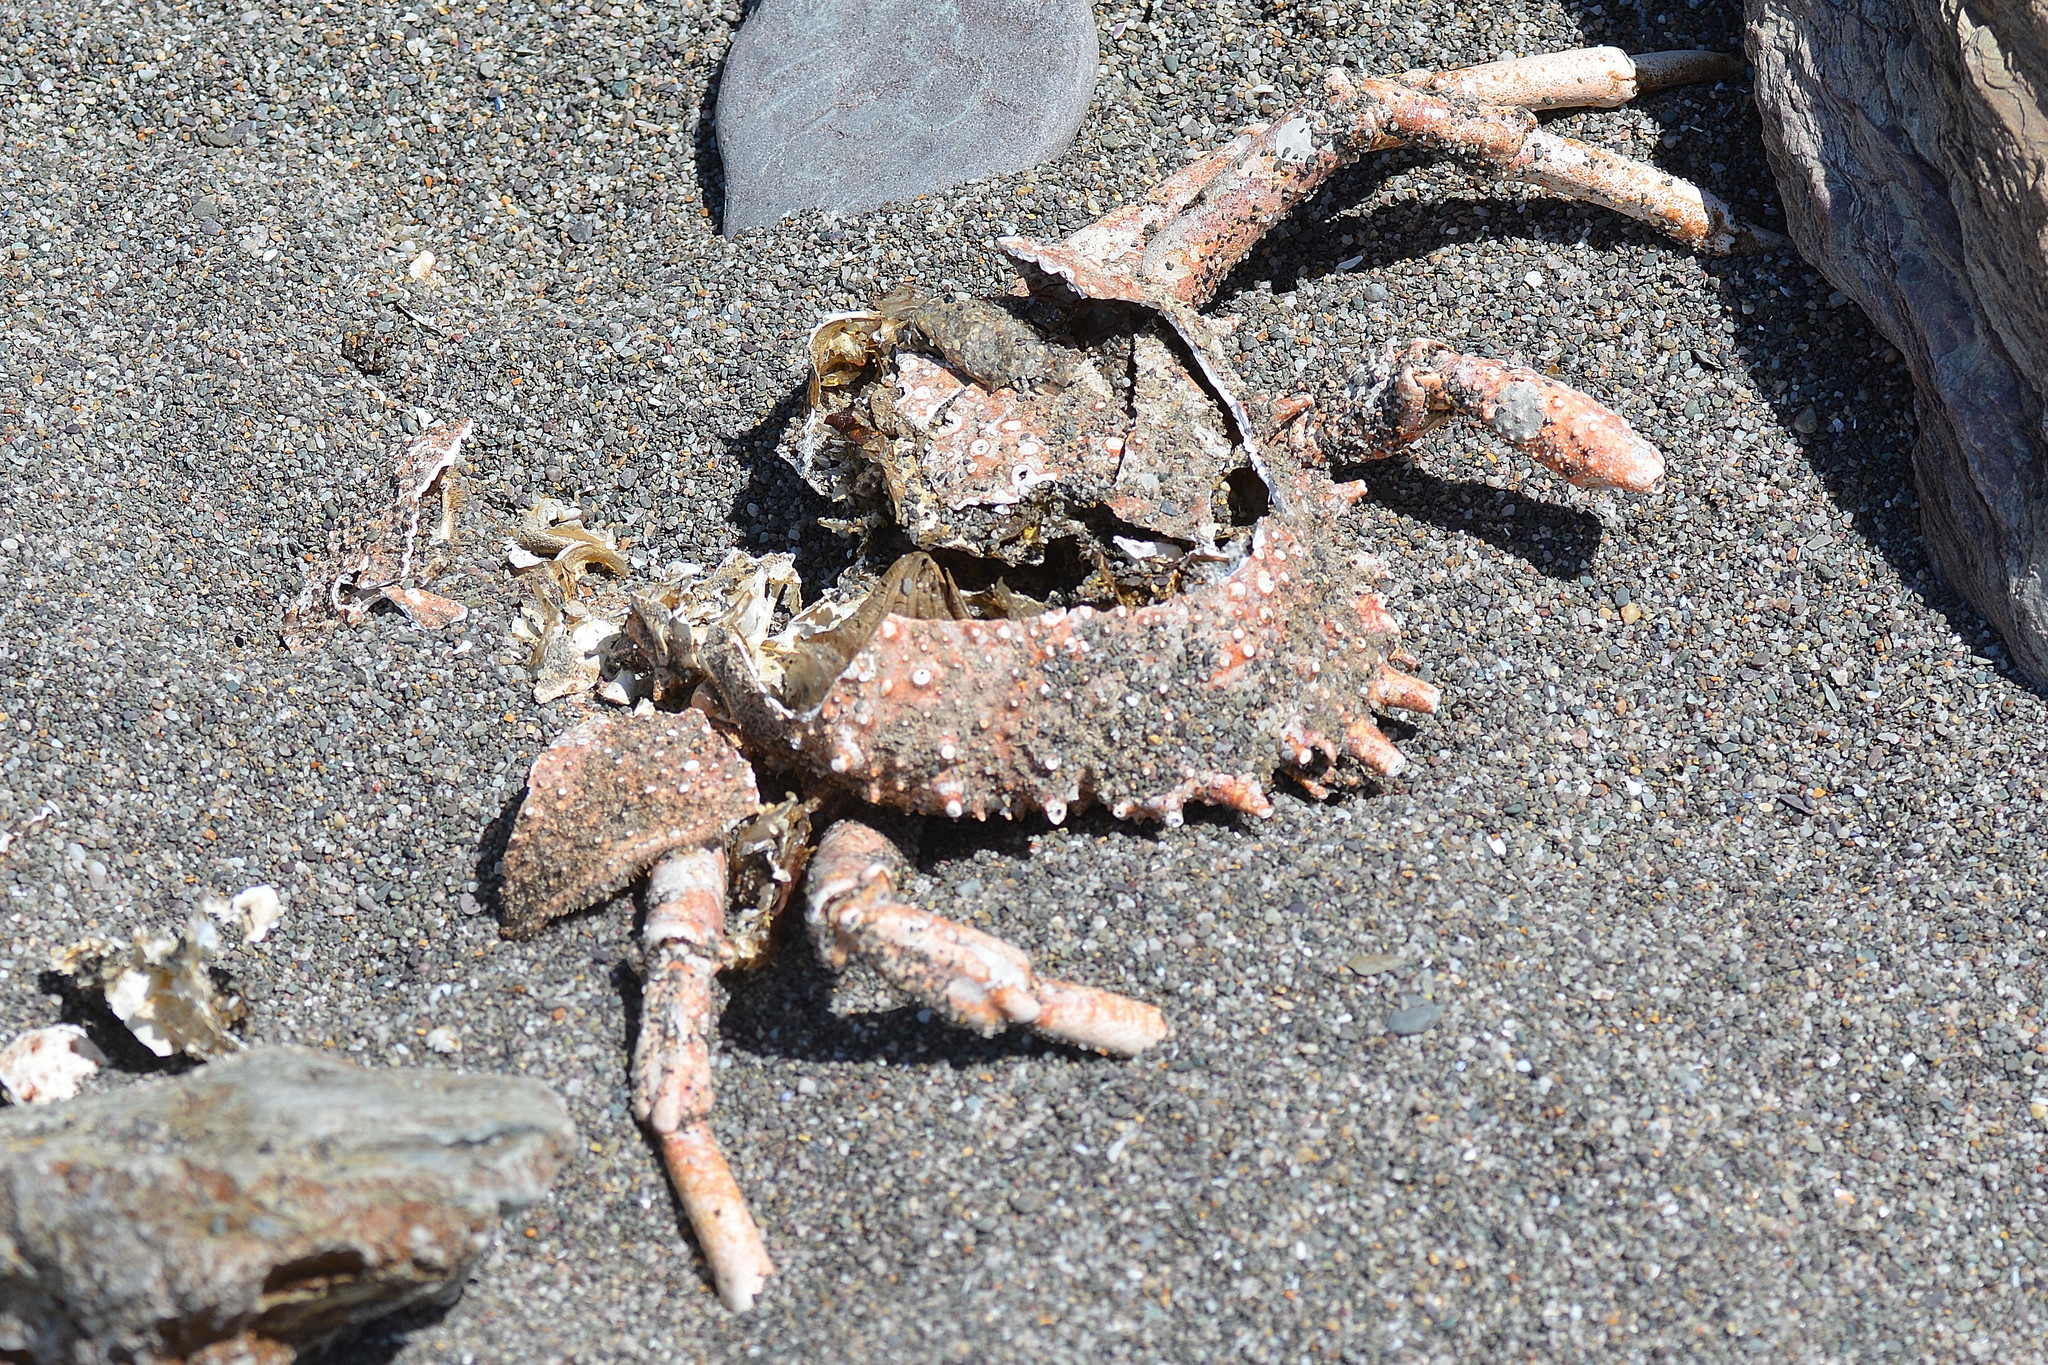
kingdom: Animalia
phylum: Arthropoda
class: Malacostraca
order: Decapoda
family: Majidae
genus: Maja
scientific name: Maja brachydactyla
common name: Common spider crab
